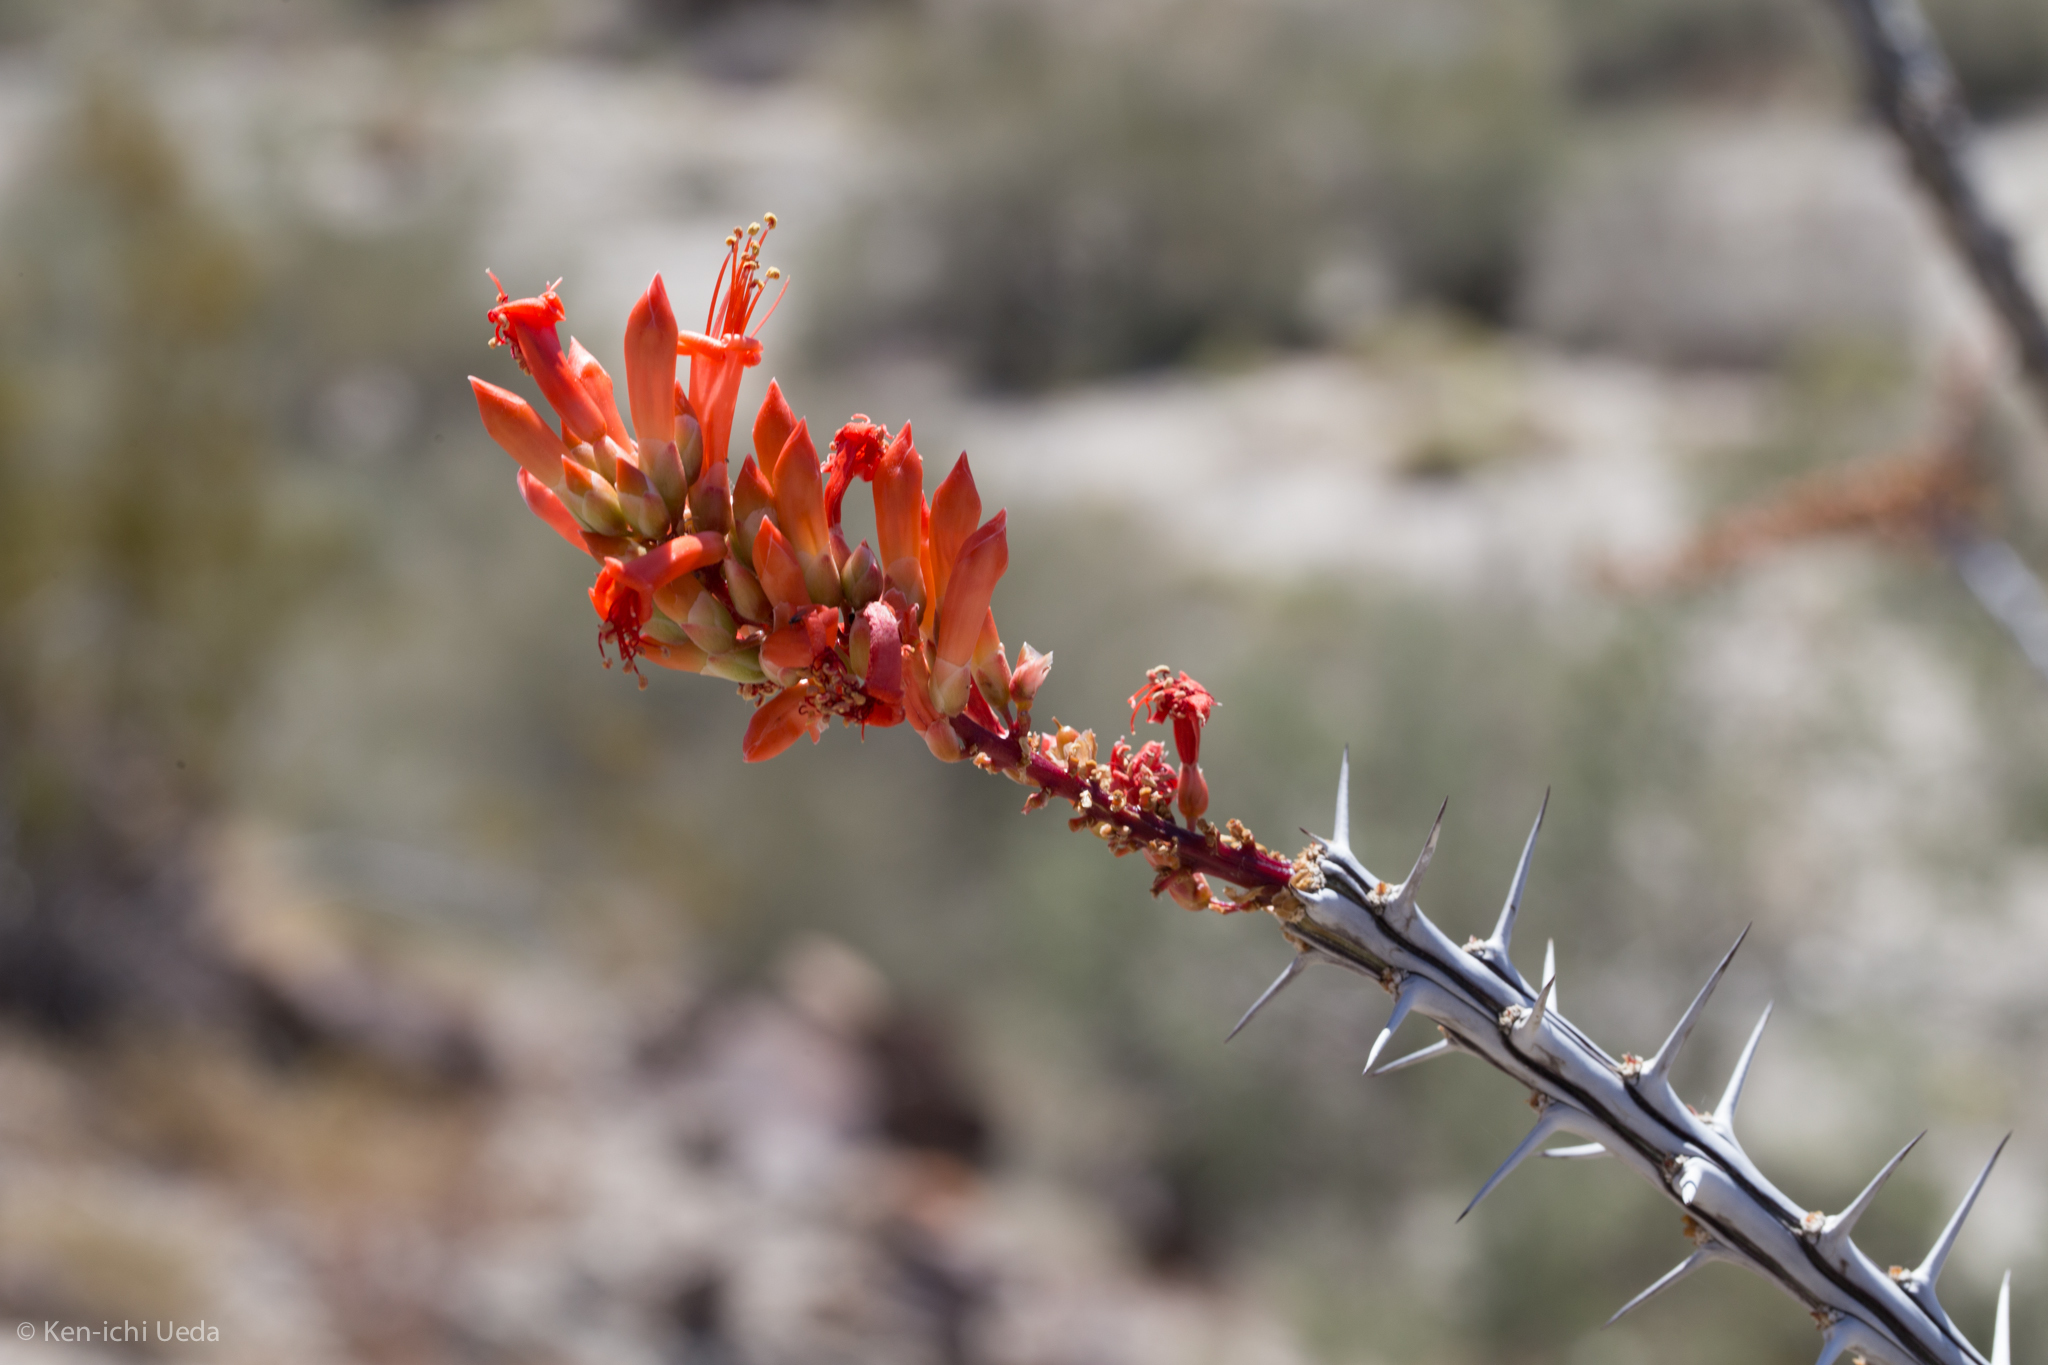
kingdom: Plantae
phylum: Tracheophyta
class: Magnoliopsida
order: Ericales
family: Fouquieriaceae
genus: Fouquieria
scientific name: Fouquieria splendens
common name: Vine-cactus
